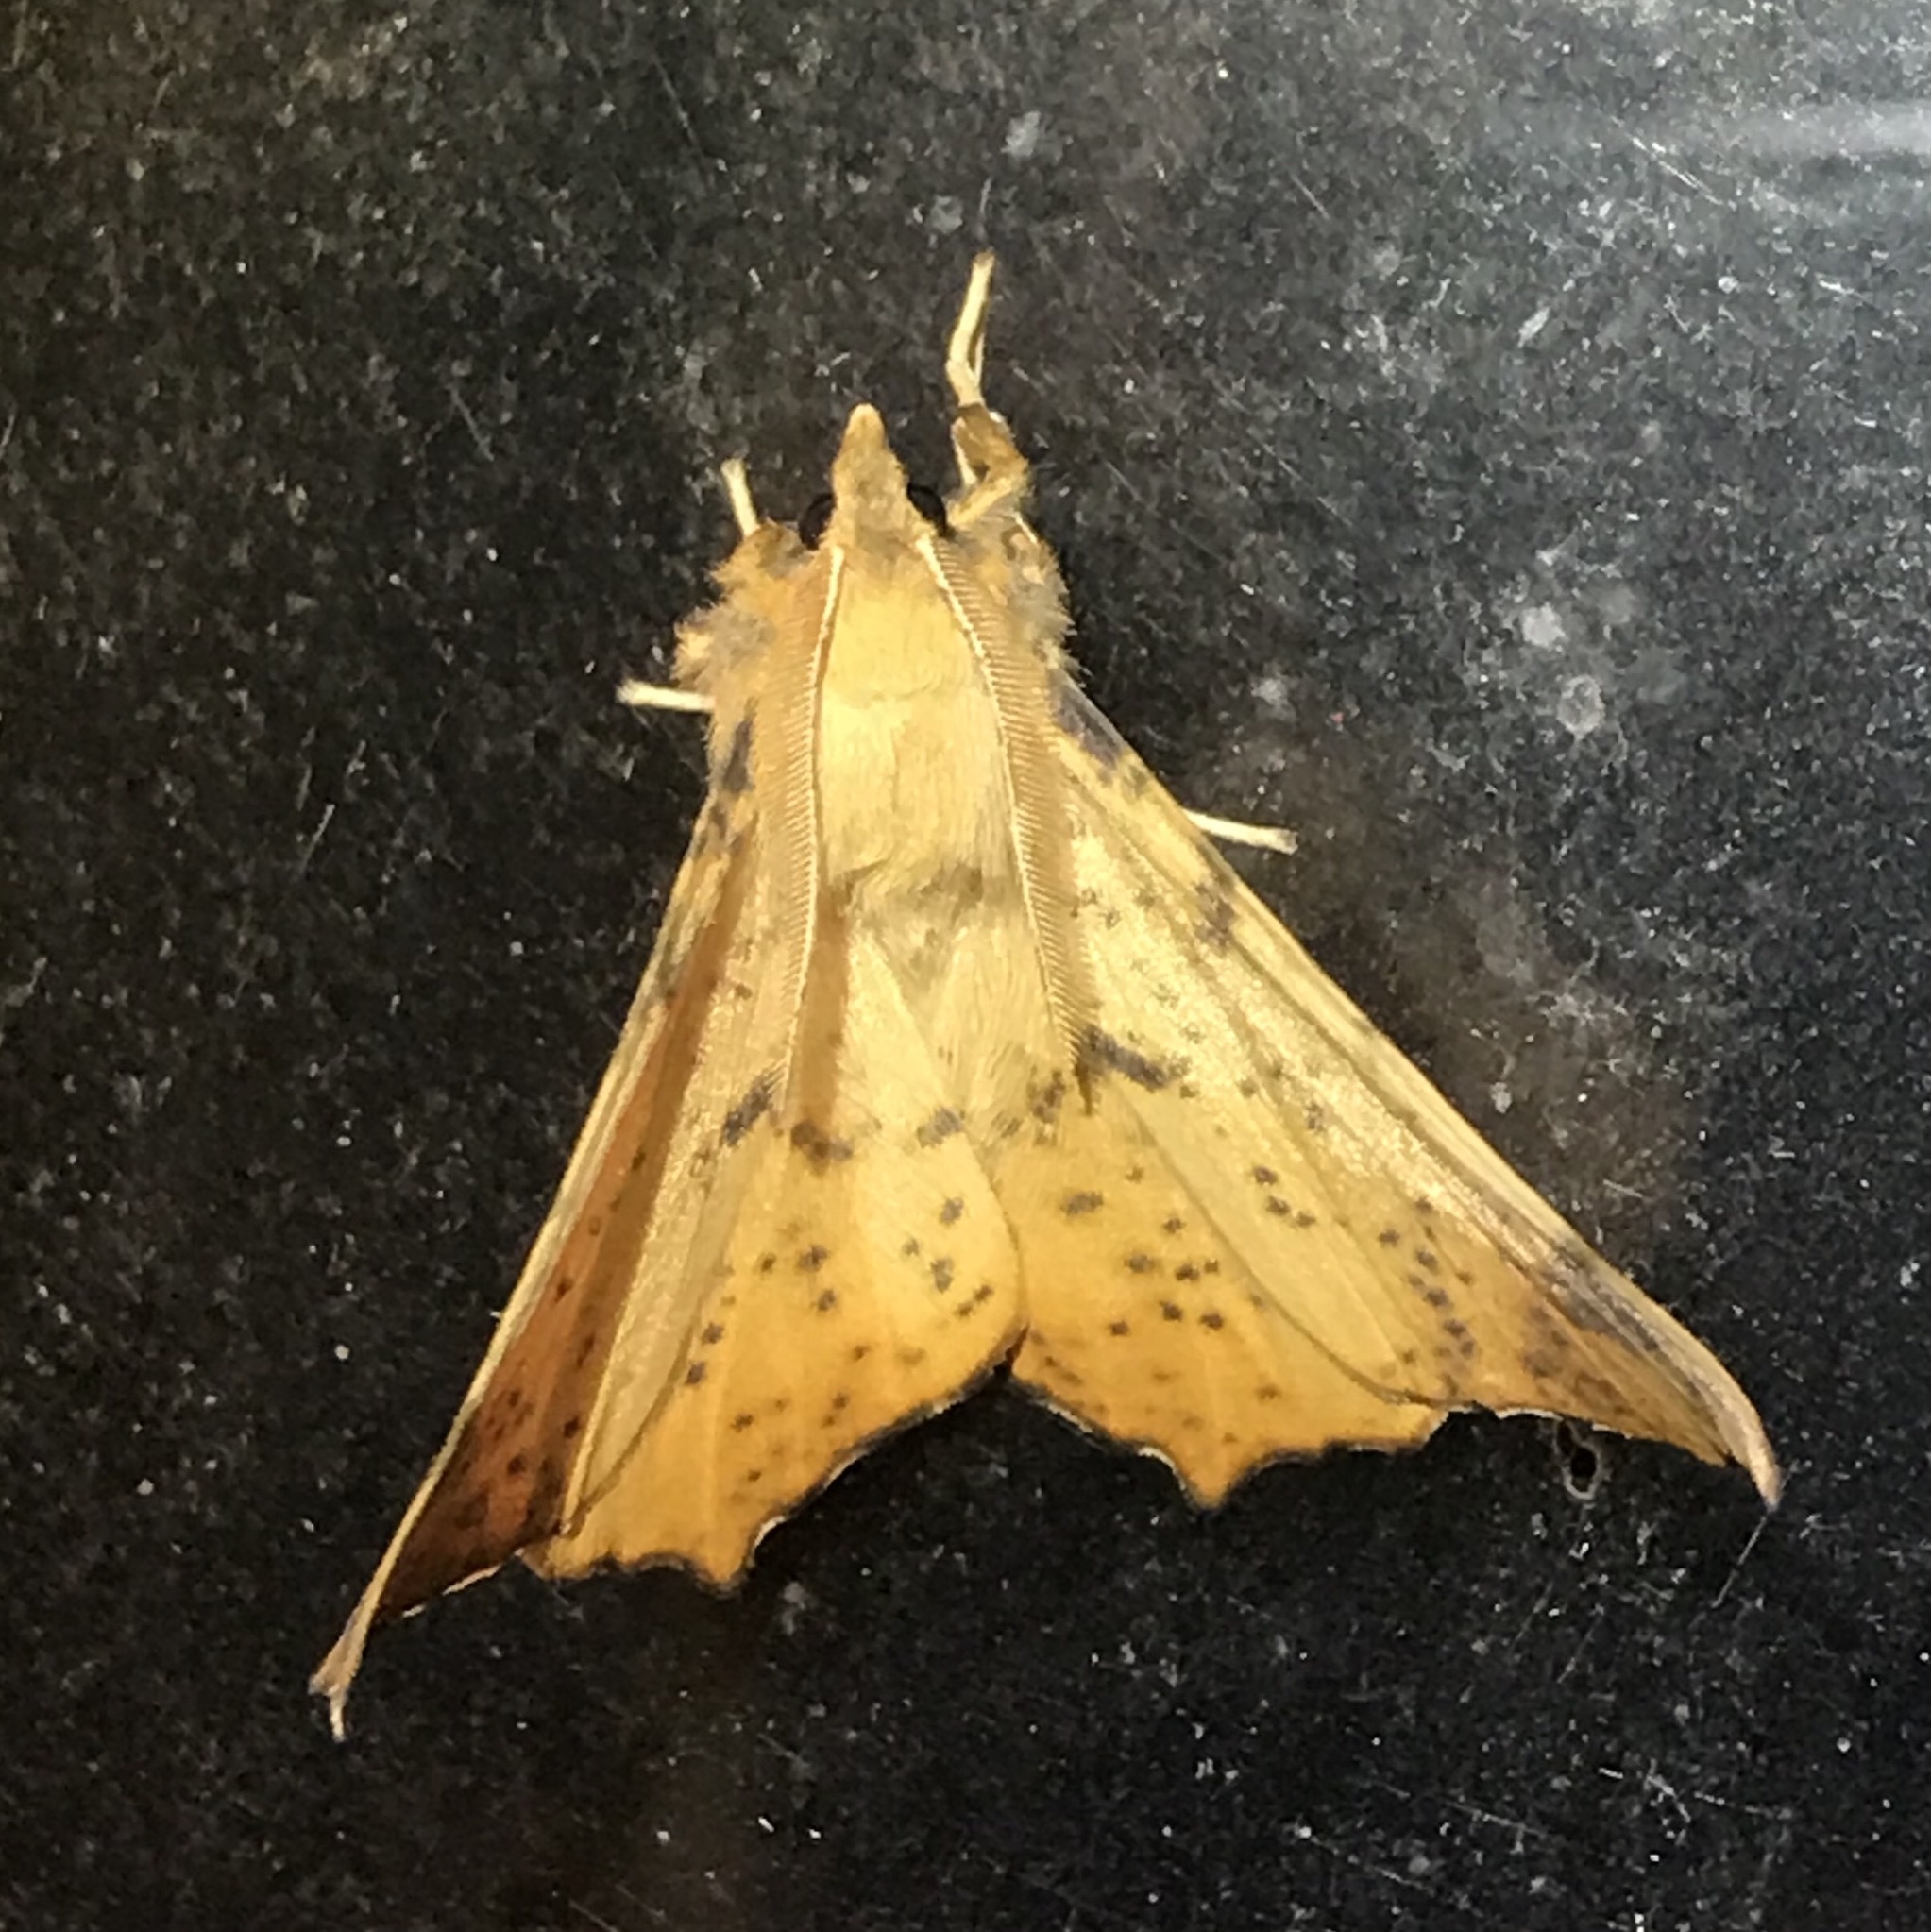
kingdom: Animalia
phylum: Arthropoda
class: Insecta
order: Lepidoptera
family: Geometridae
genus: Ennomos
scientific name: Ennomos magnaria
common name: Maple spanworm
